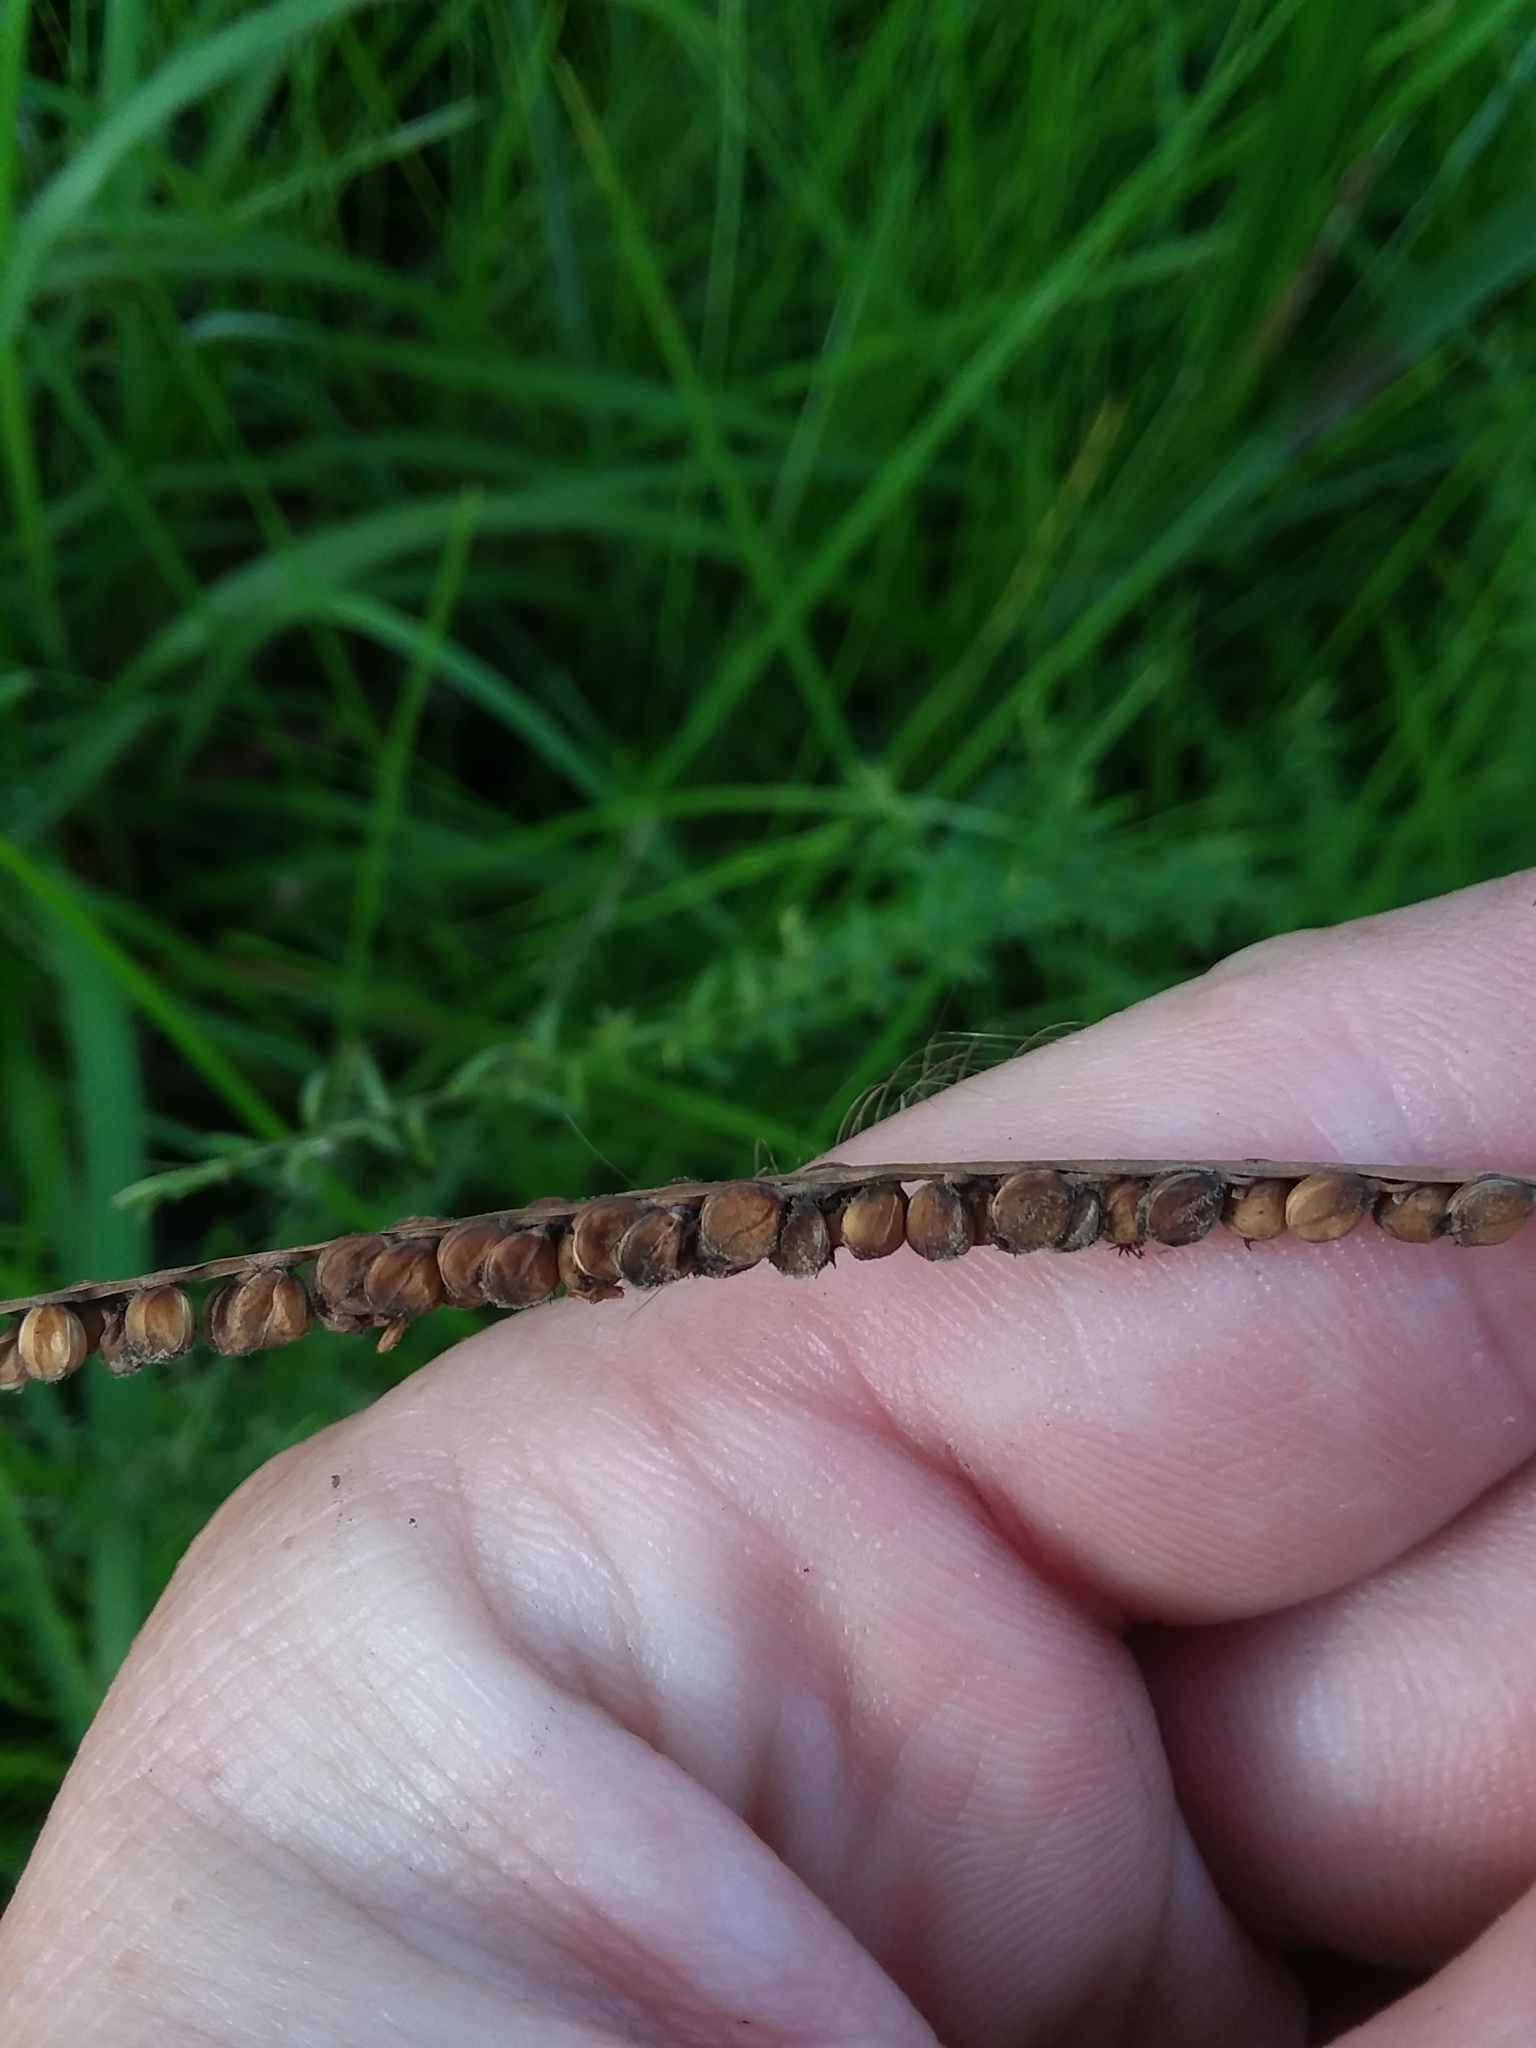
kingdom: Plantae
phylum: Tracheophyta
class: Liliopsida
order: Poales
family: Poaceae
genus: Paspalum
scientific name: Paspalum floridanum
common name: Florida paspalum
